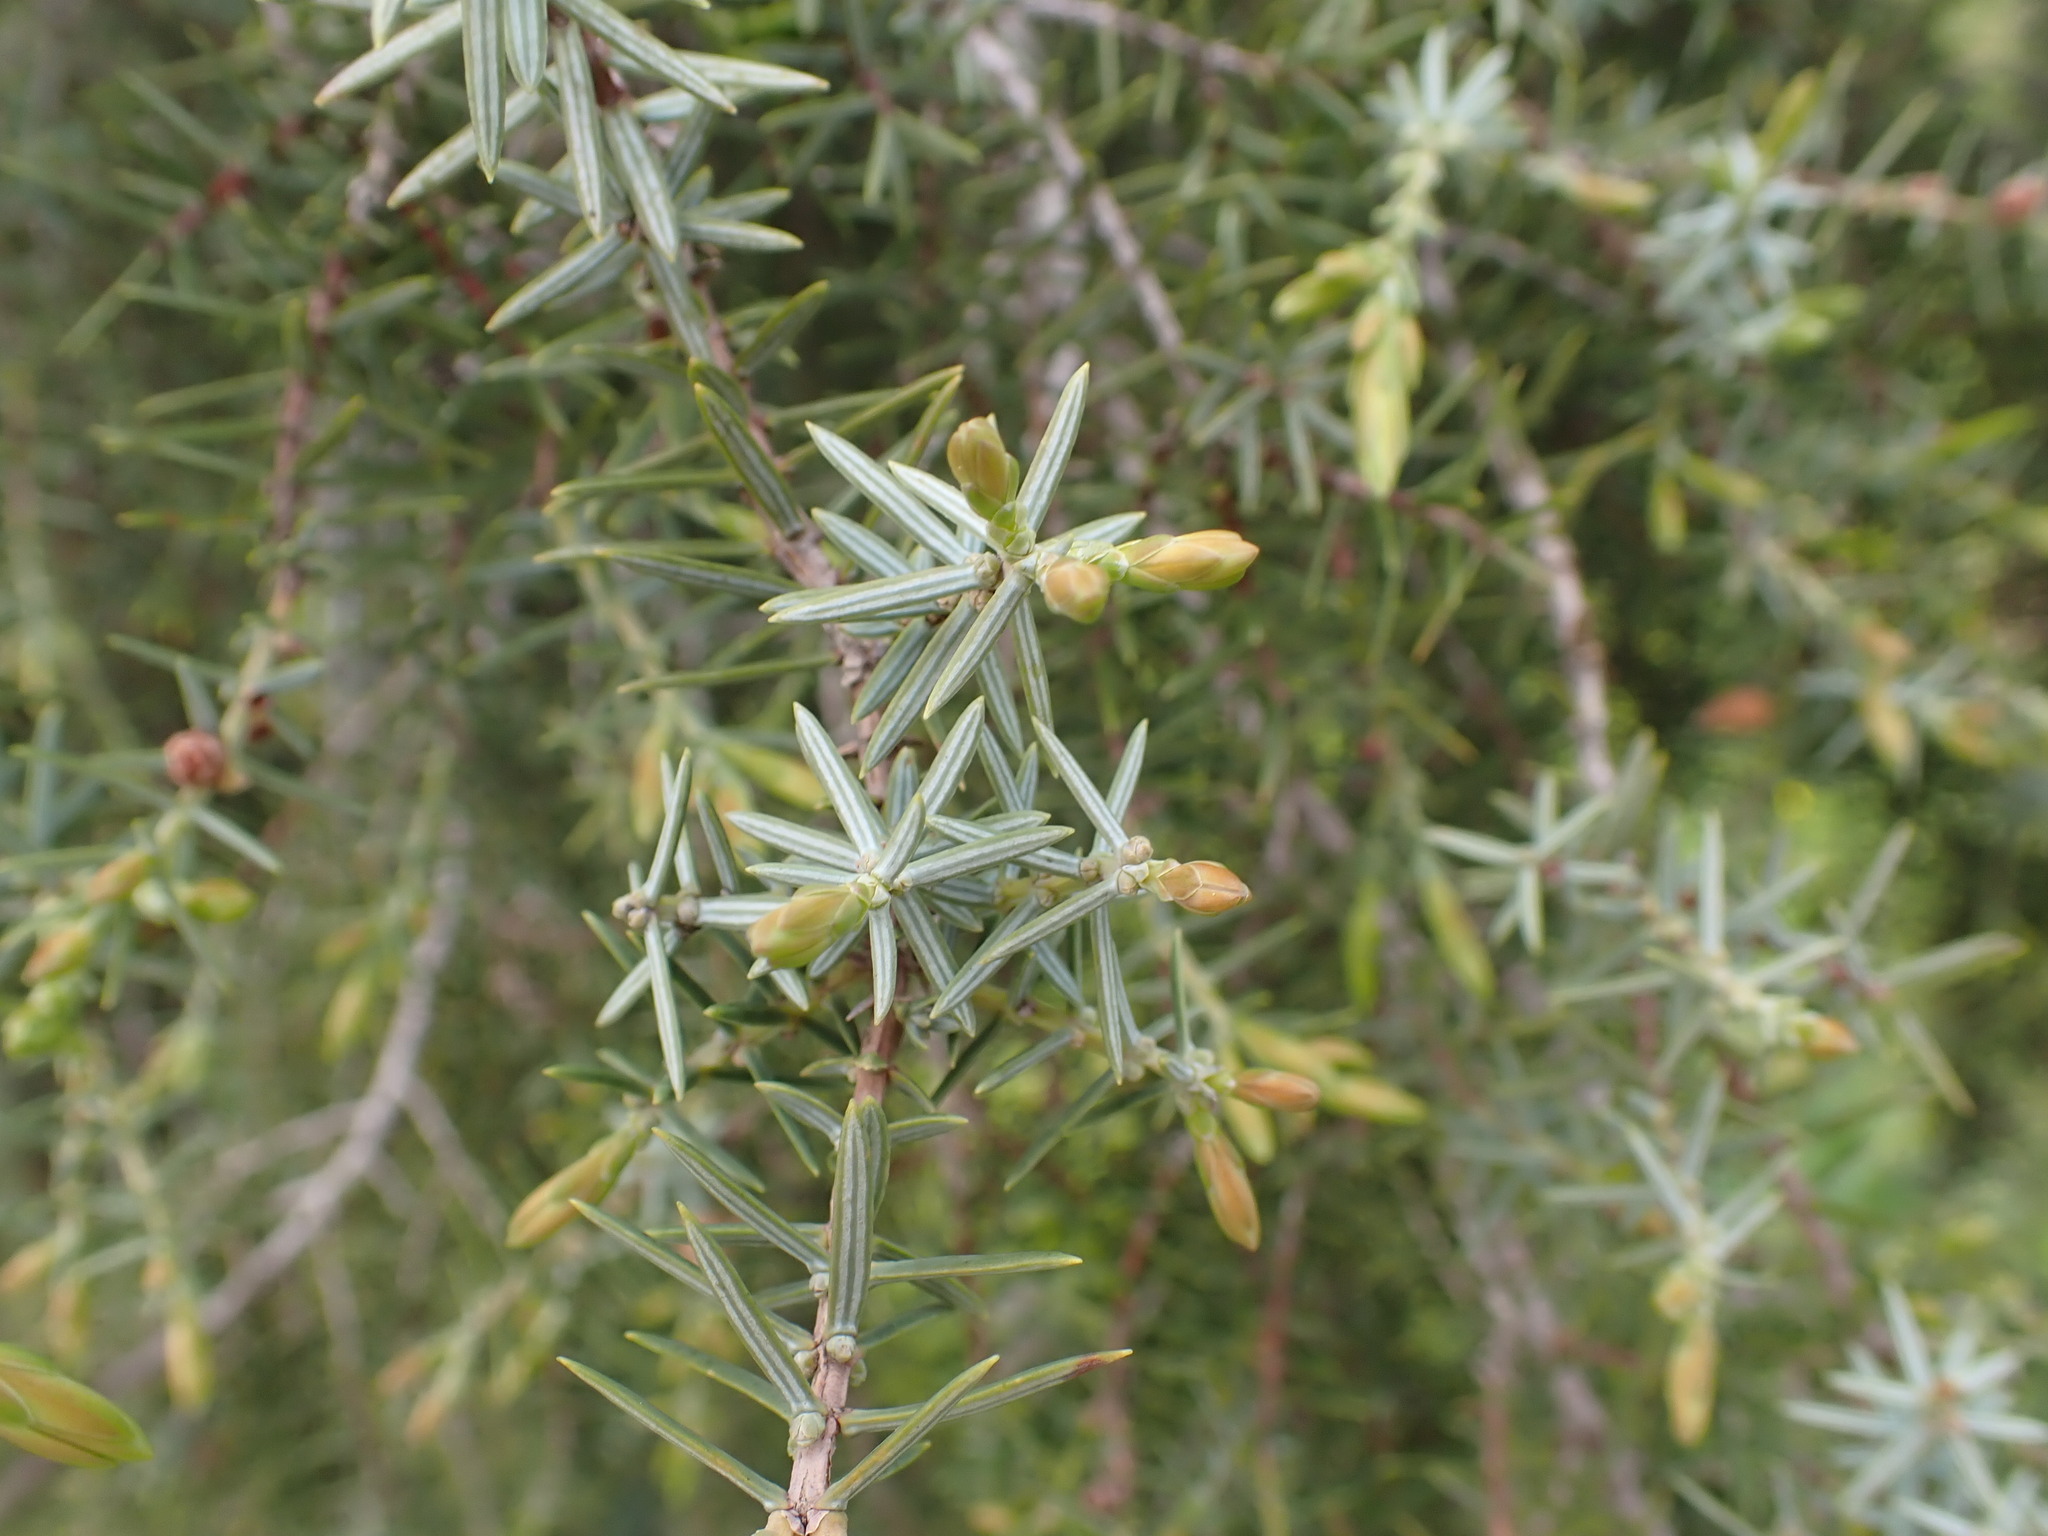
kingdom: Plantae
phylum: Tracheophyta
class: Pinopsida
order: Pinales
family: Cupressaceae
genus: Juniperus
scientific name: Juniperus oxycedrus
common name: Prickly juniper
